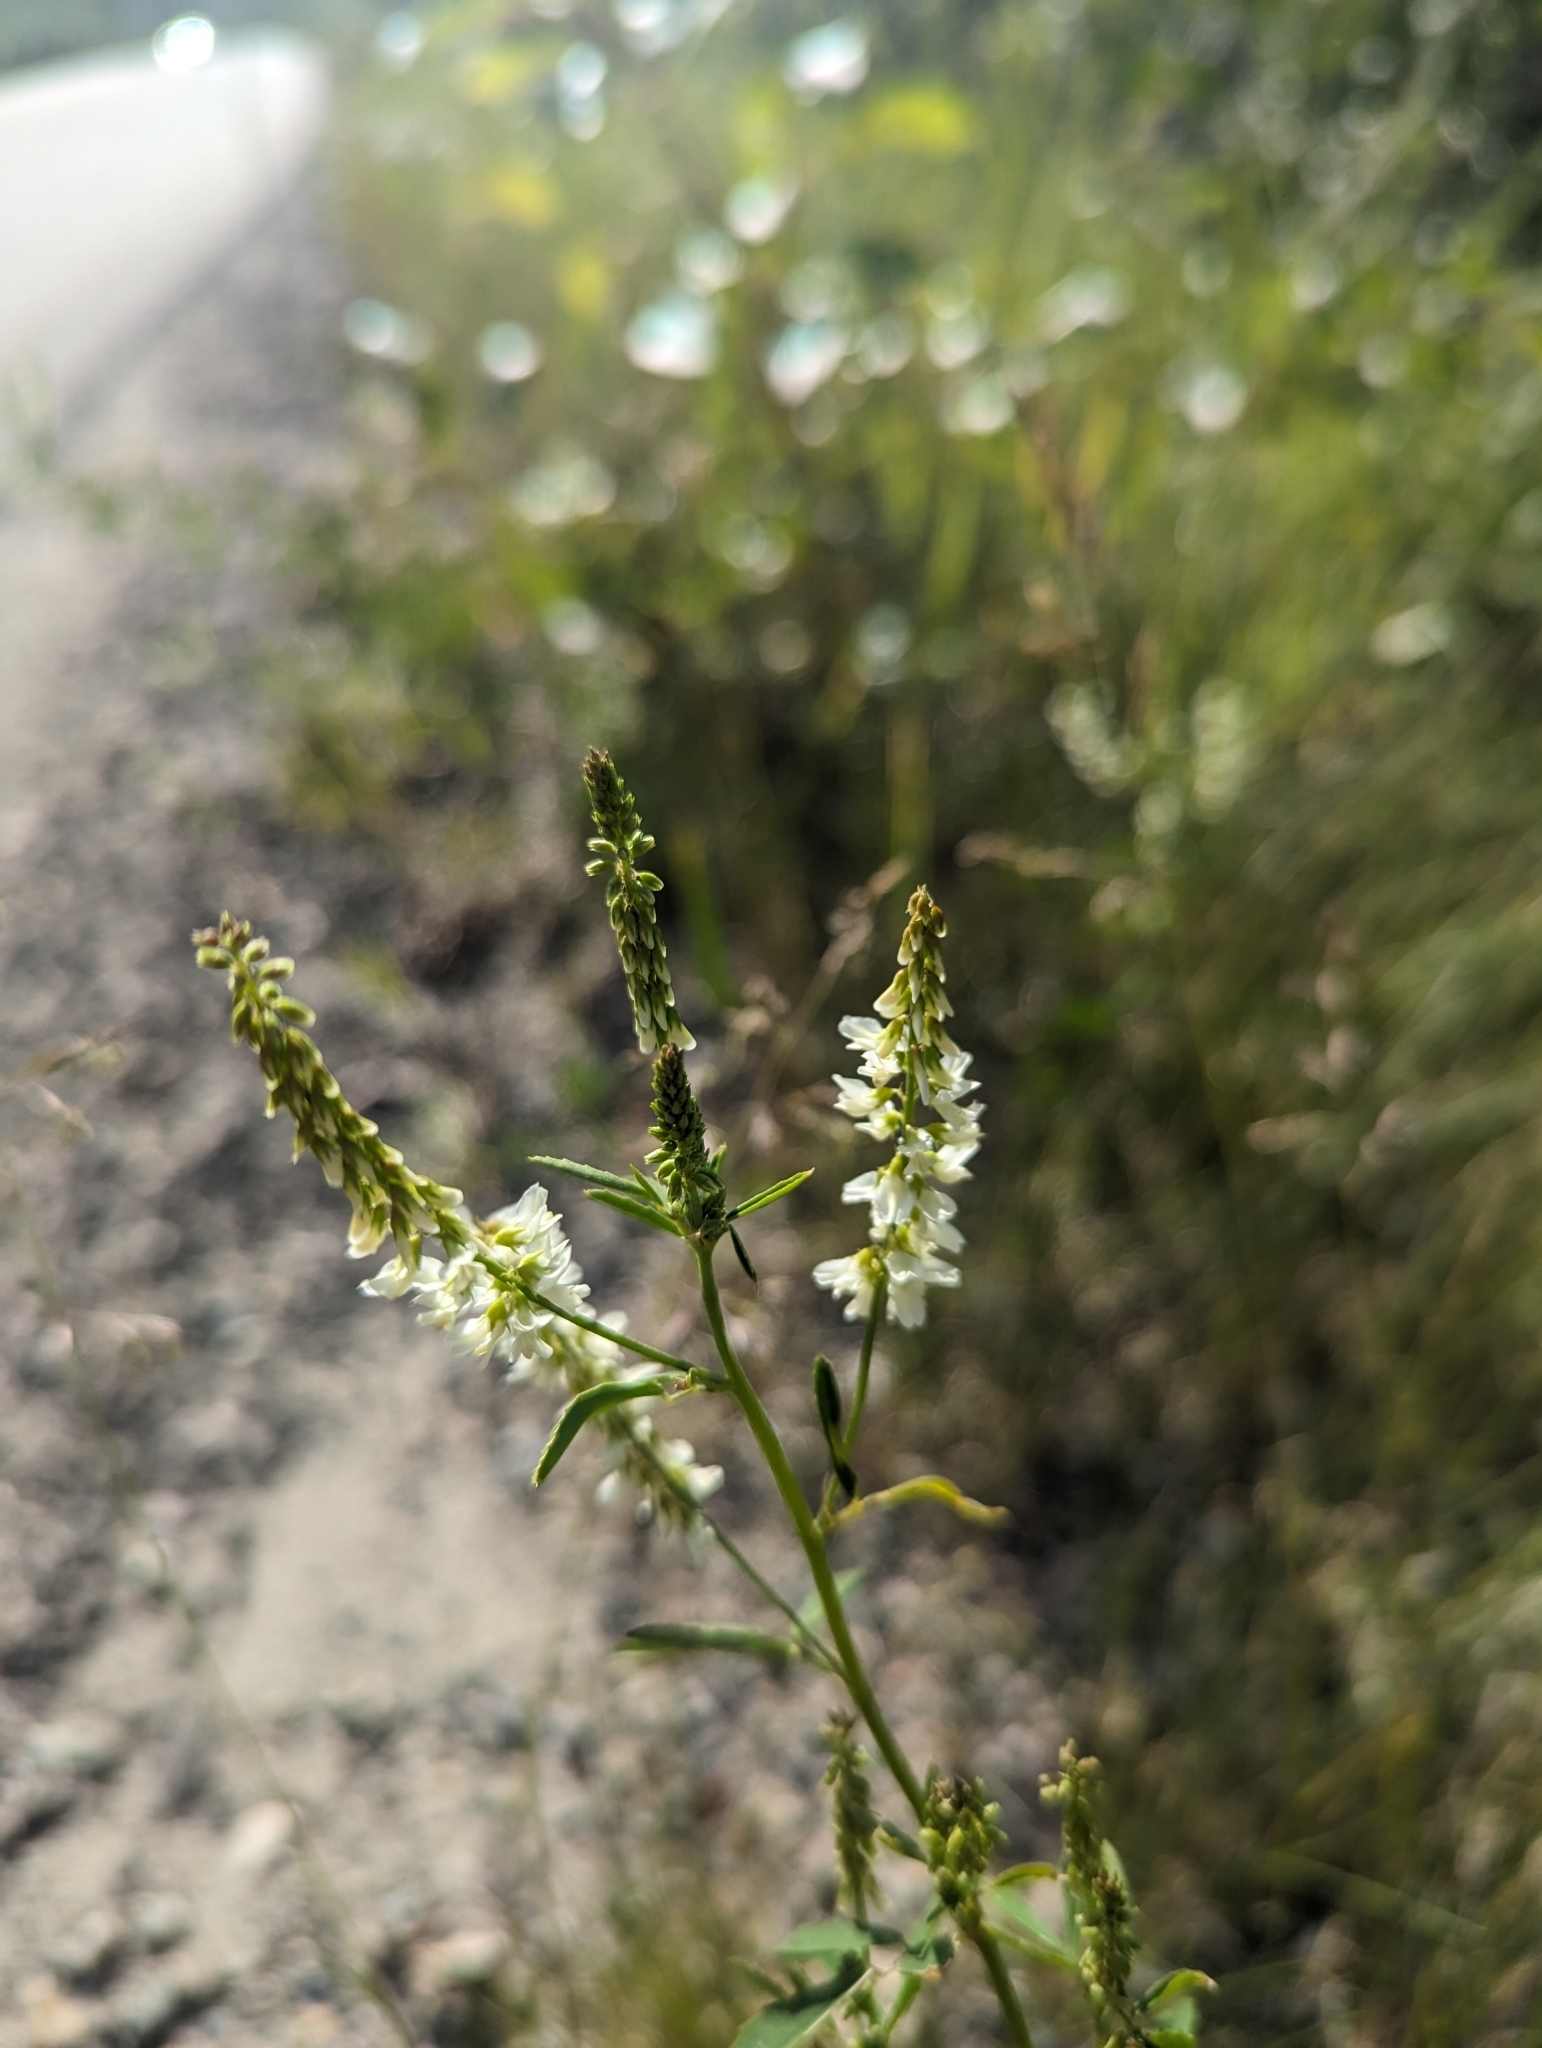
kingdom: Plantae
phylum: Tracheophyta
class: Magnoliopsida
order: Fabales
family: Fabaceae
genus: Melilotus
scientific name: Melilotus albus
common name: White melilot
